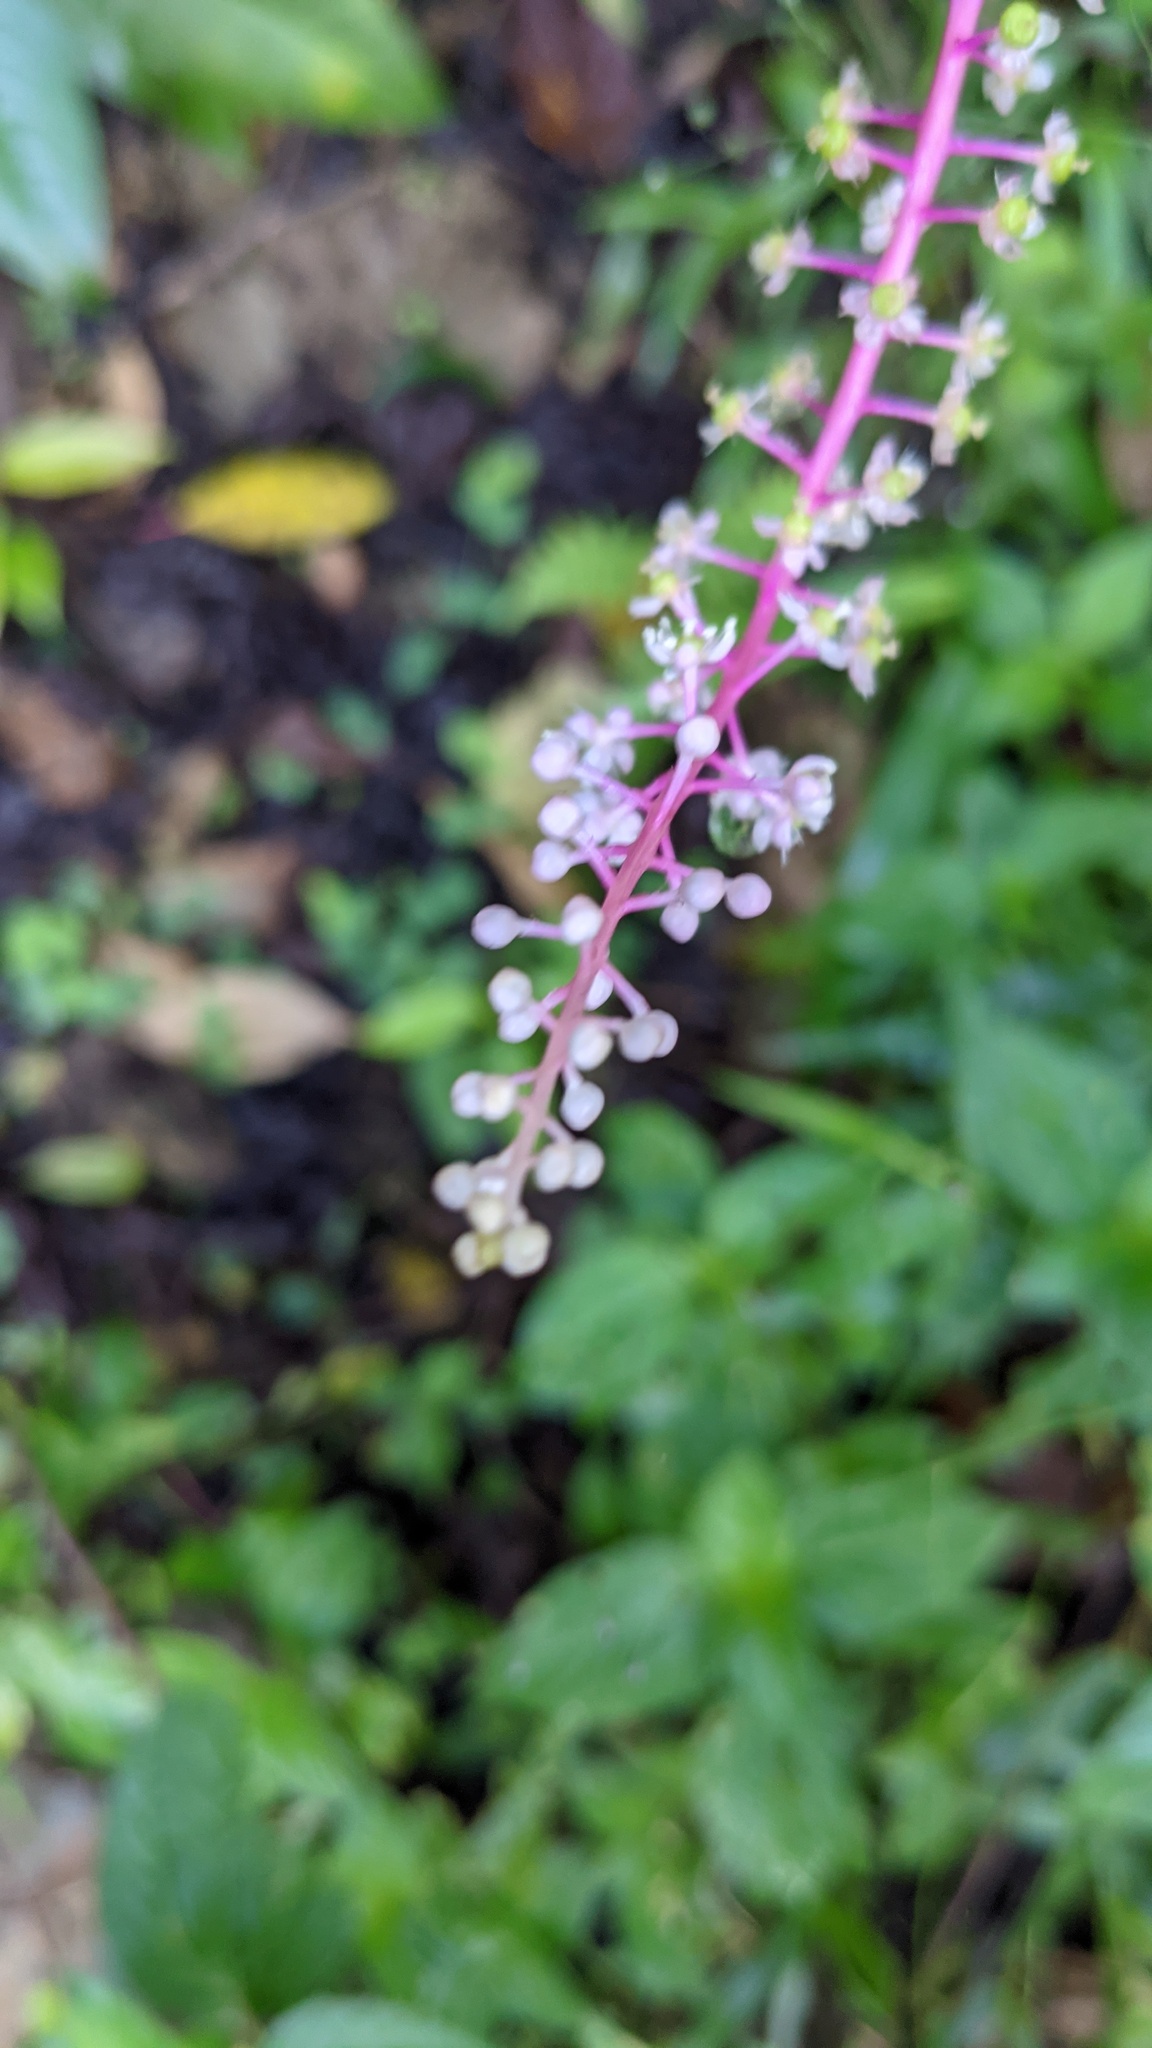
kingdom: Plantae
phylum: Tracheophyta
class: Magnoliopsida
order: Caryophyllales
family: Phytolaccaceae
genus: Phytolacca
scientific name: Phytolacca rivinoides
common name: Venezuelan pokeweed
